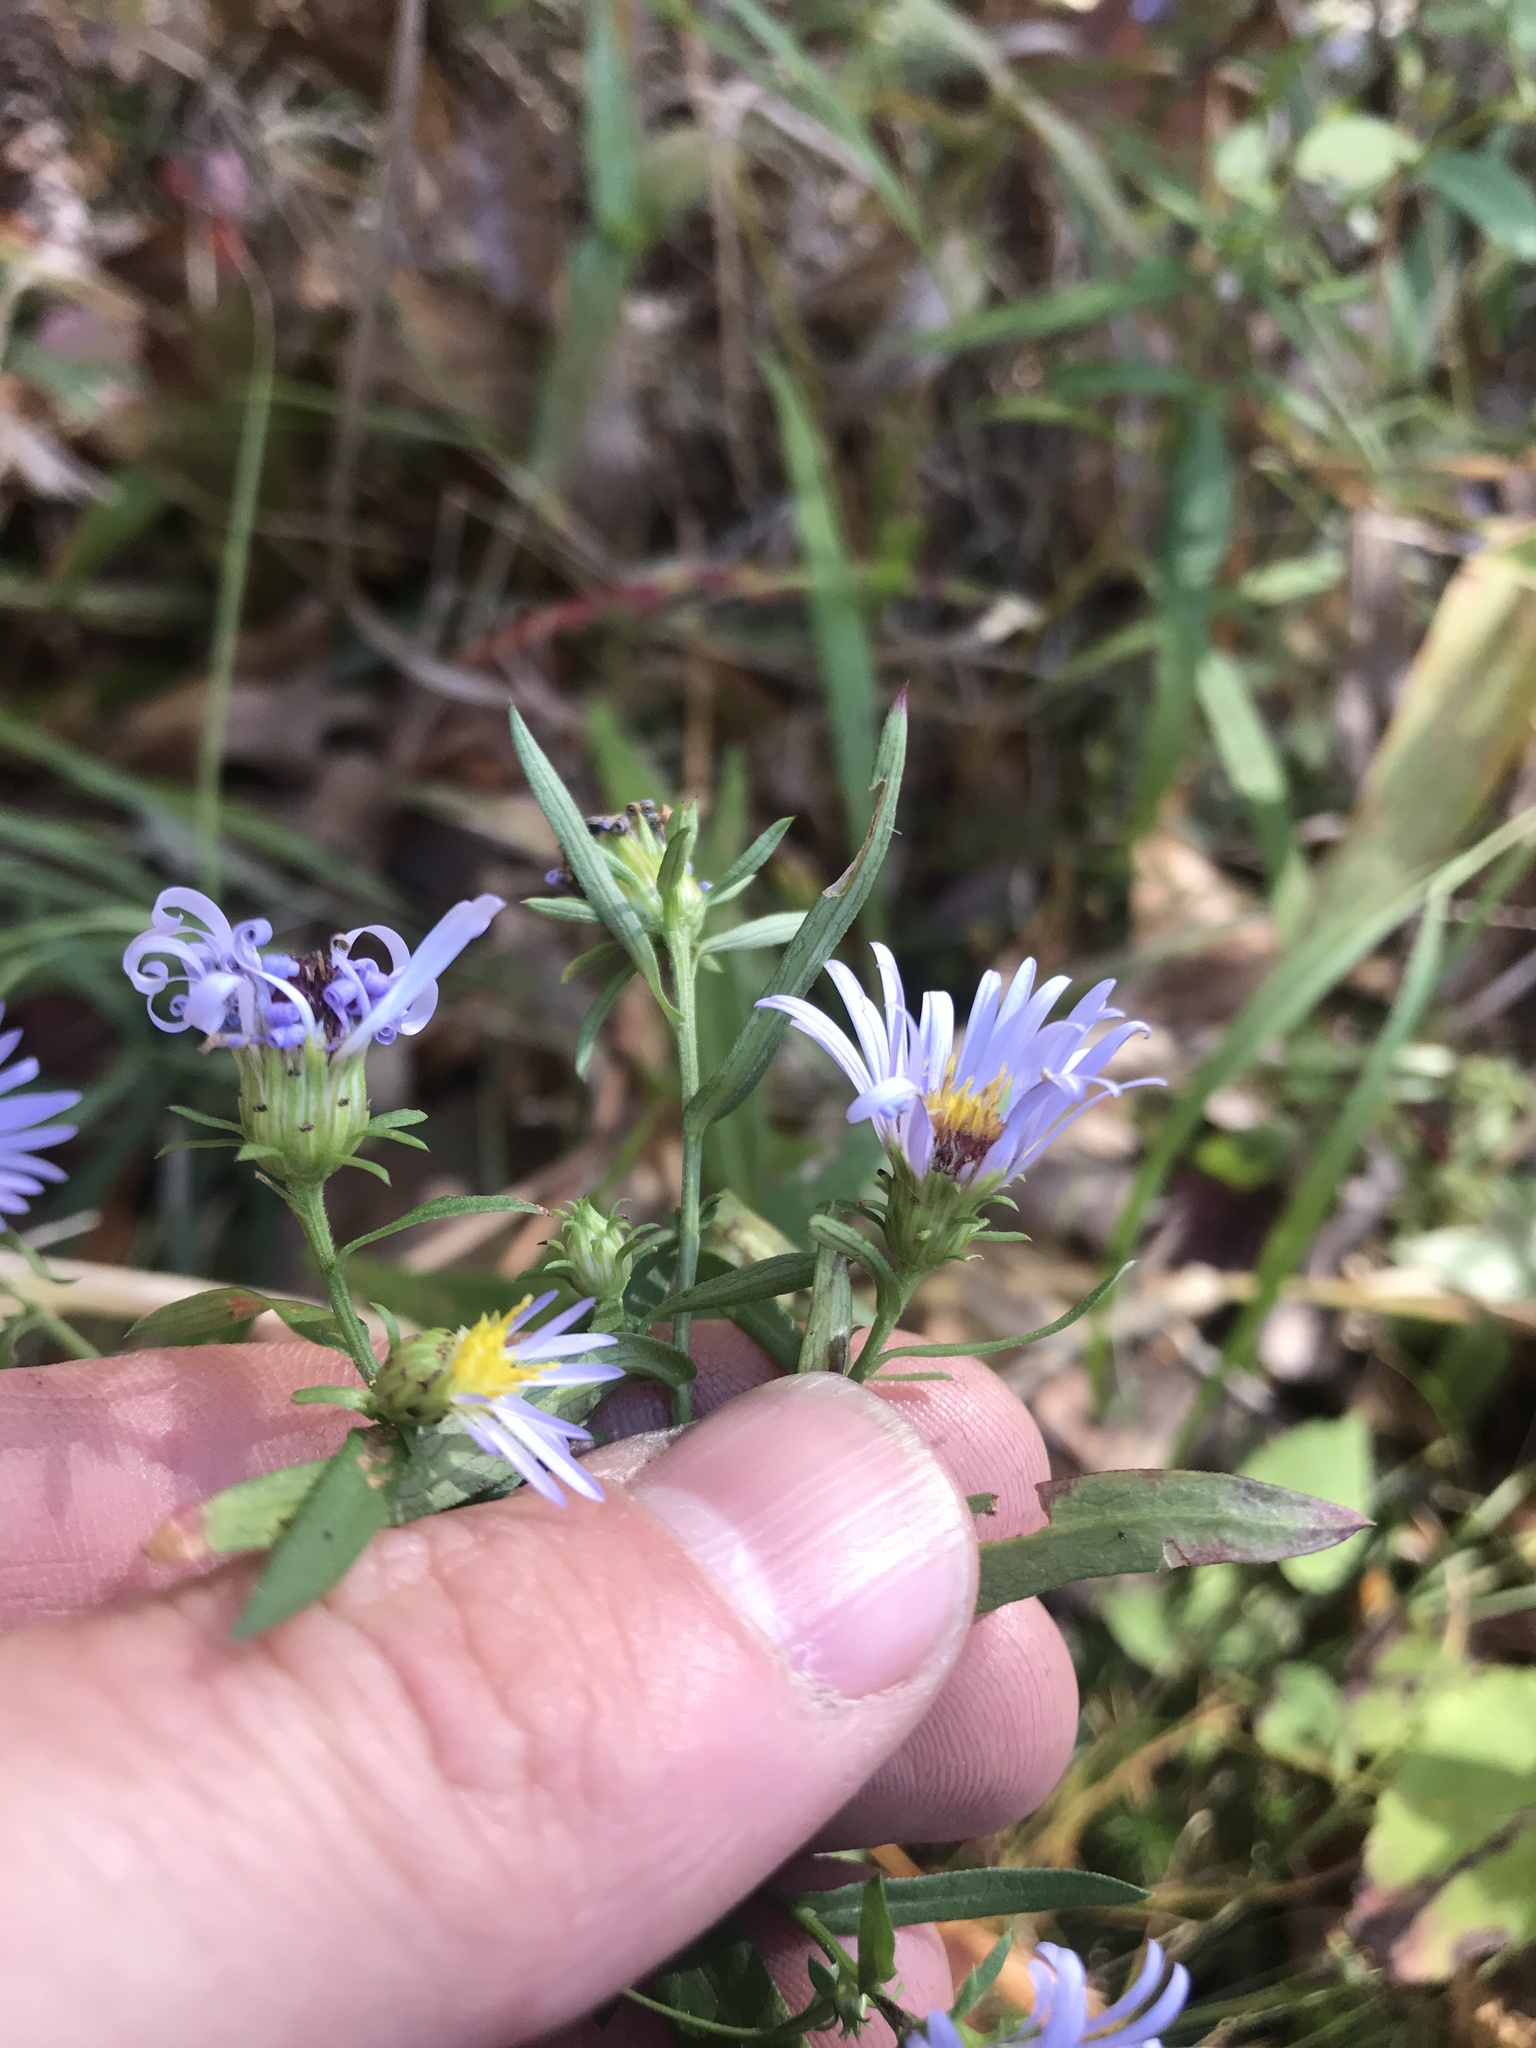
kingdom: Plantae
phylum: Tracheophyta
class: Magnoliopsida
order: Asterales
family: Asteraceae
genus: Symphyotrichum
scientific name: Symphyotrichum novi-belgii
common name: Michaelmas daisy
